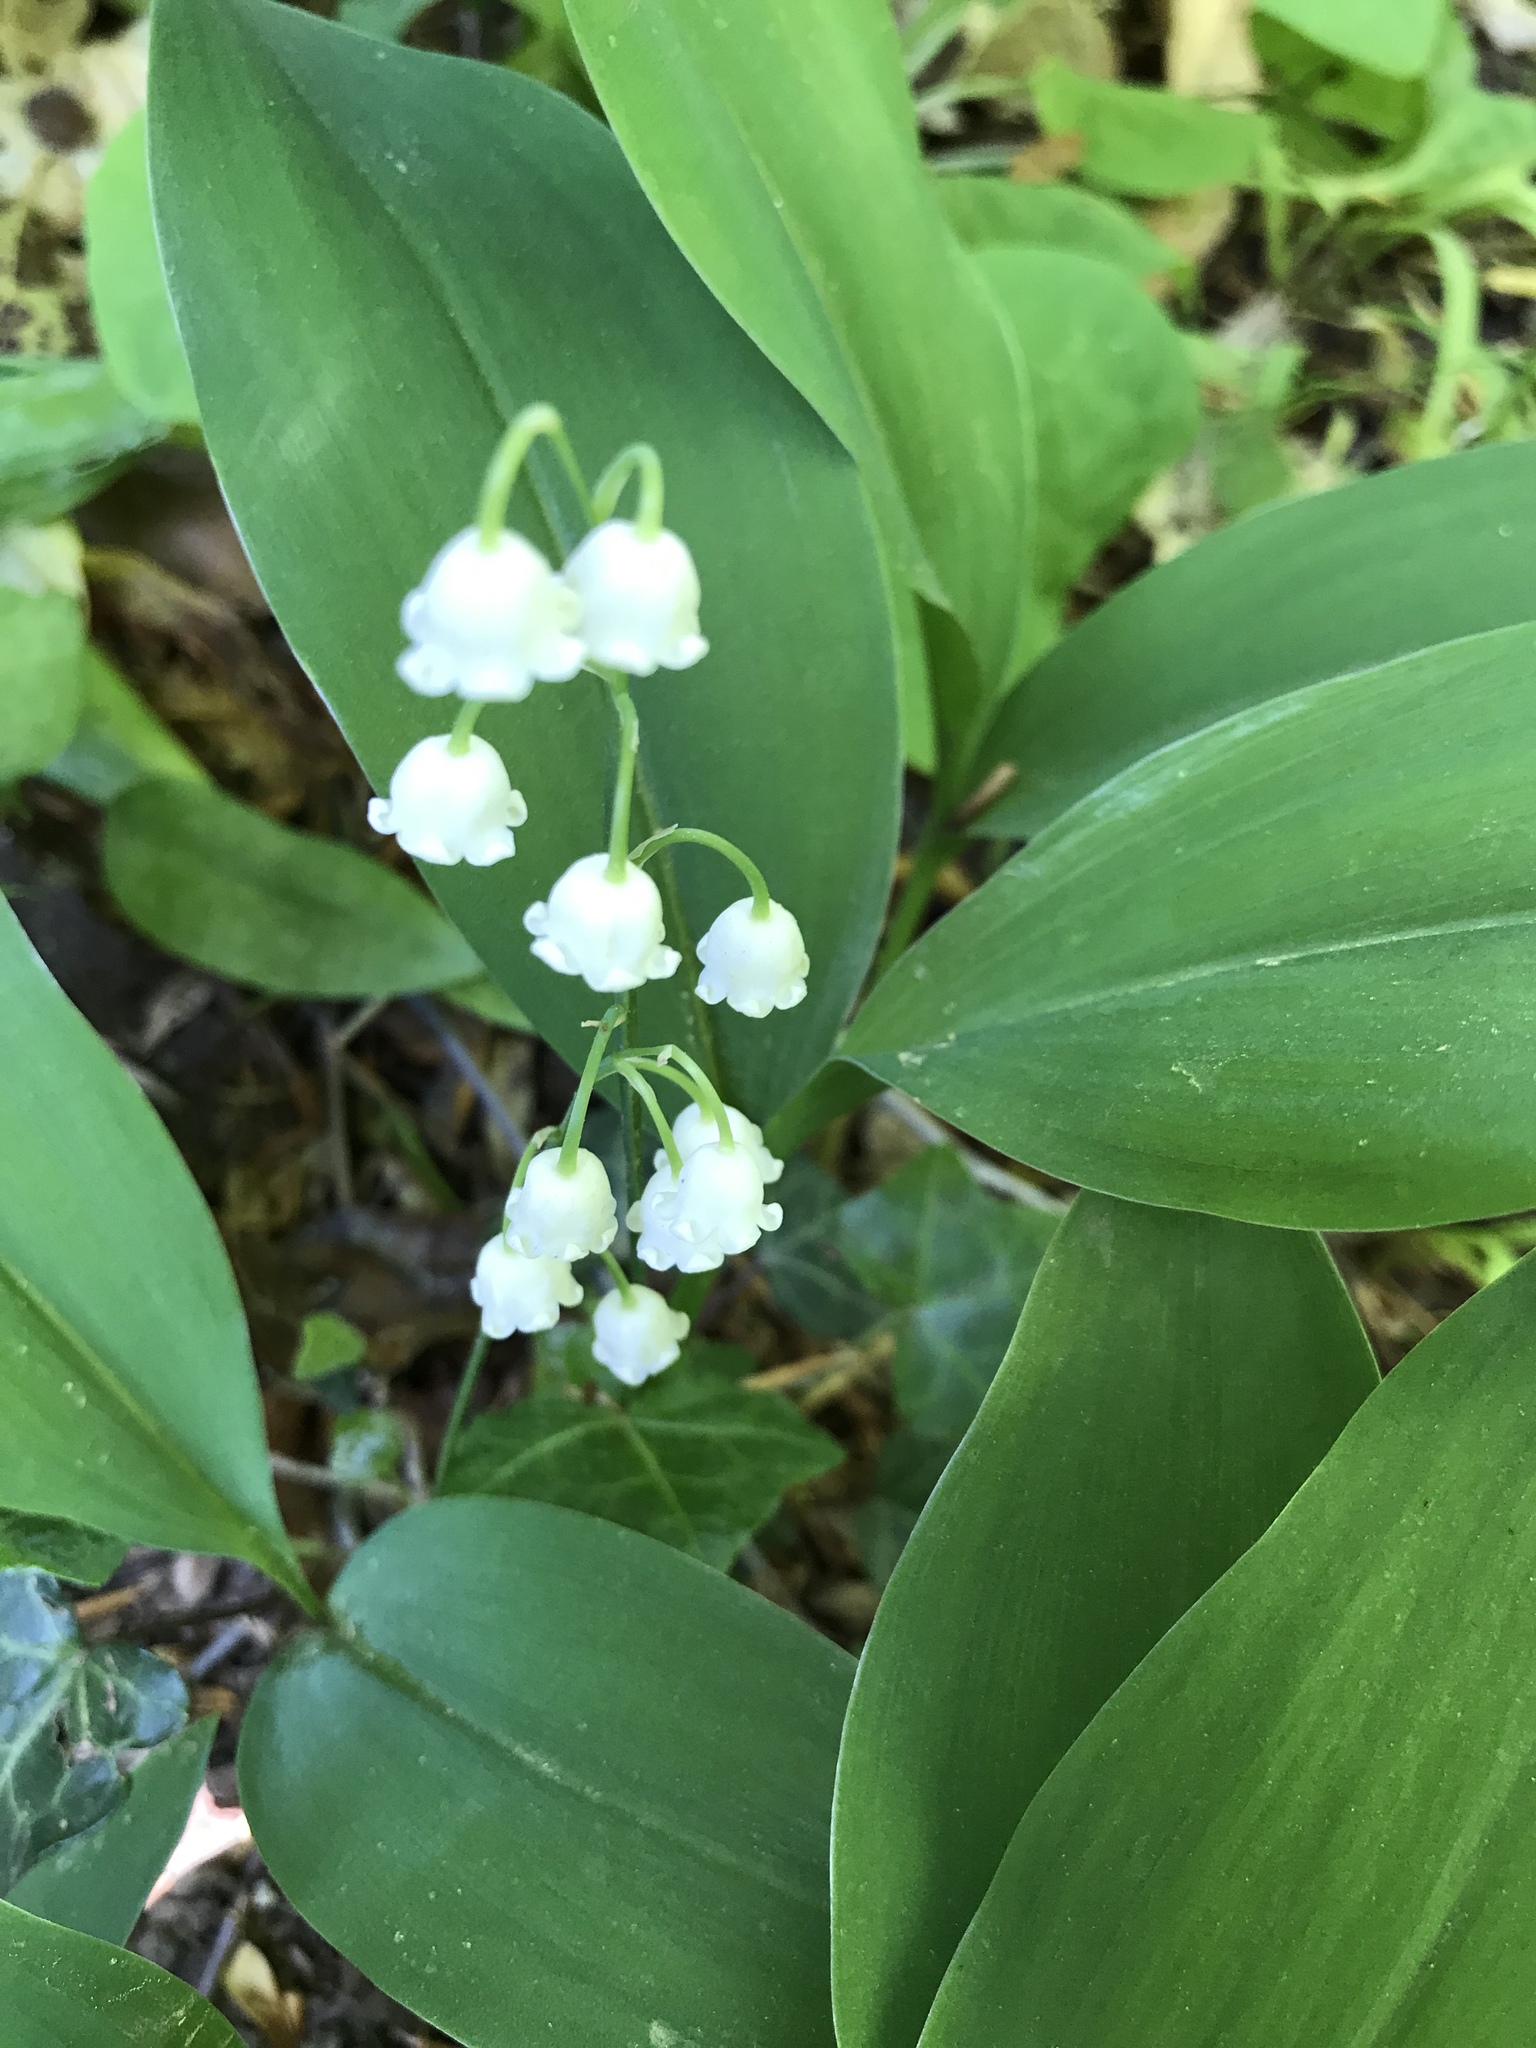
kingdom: Plantae
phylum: Tracheophyta
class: Liliopsida
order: Asparagales
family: Asparagaceae
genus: Convallaria
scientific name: Convallaria majalis
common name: Lily-of-the-valley
